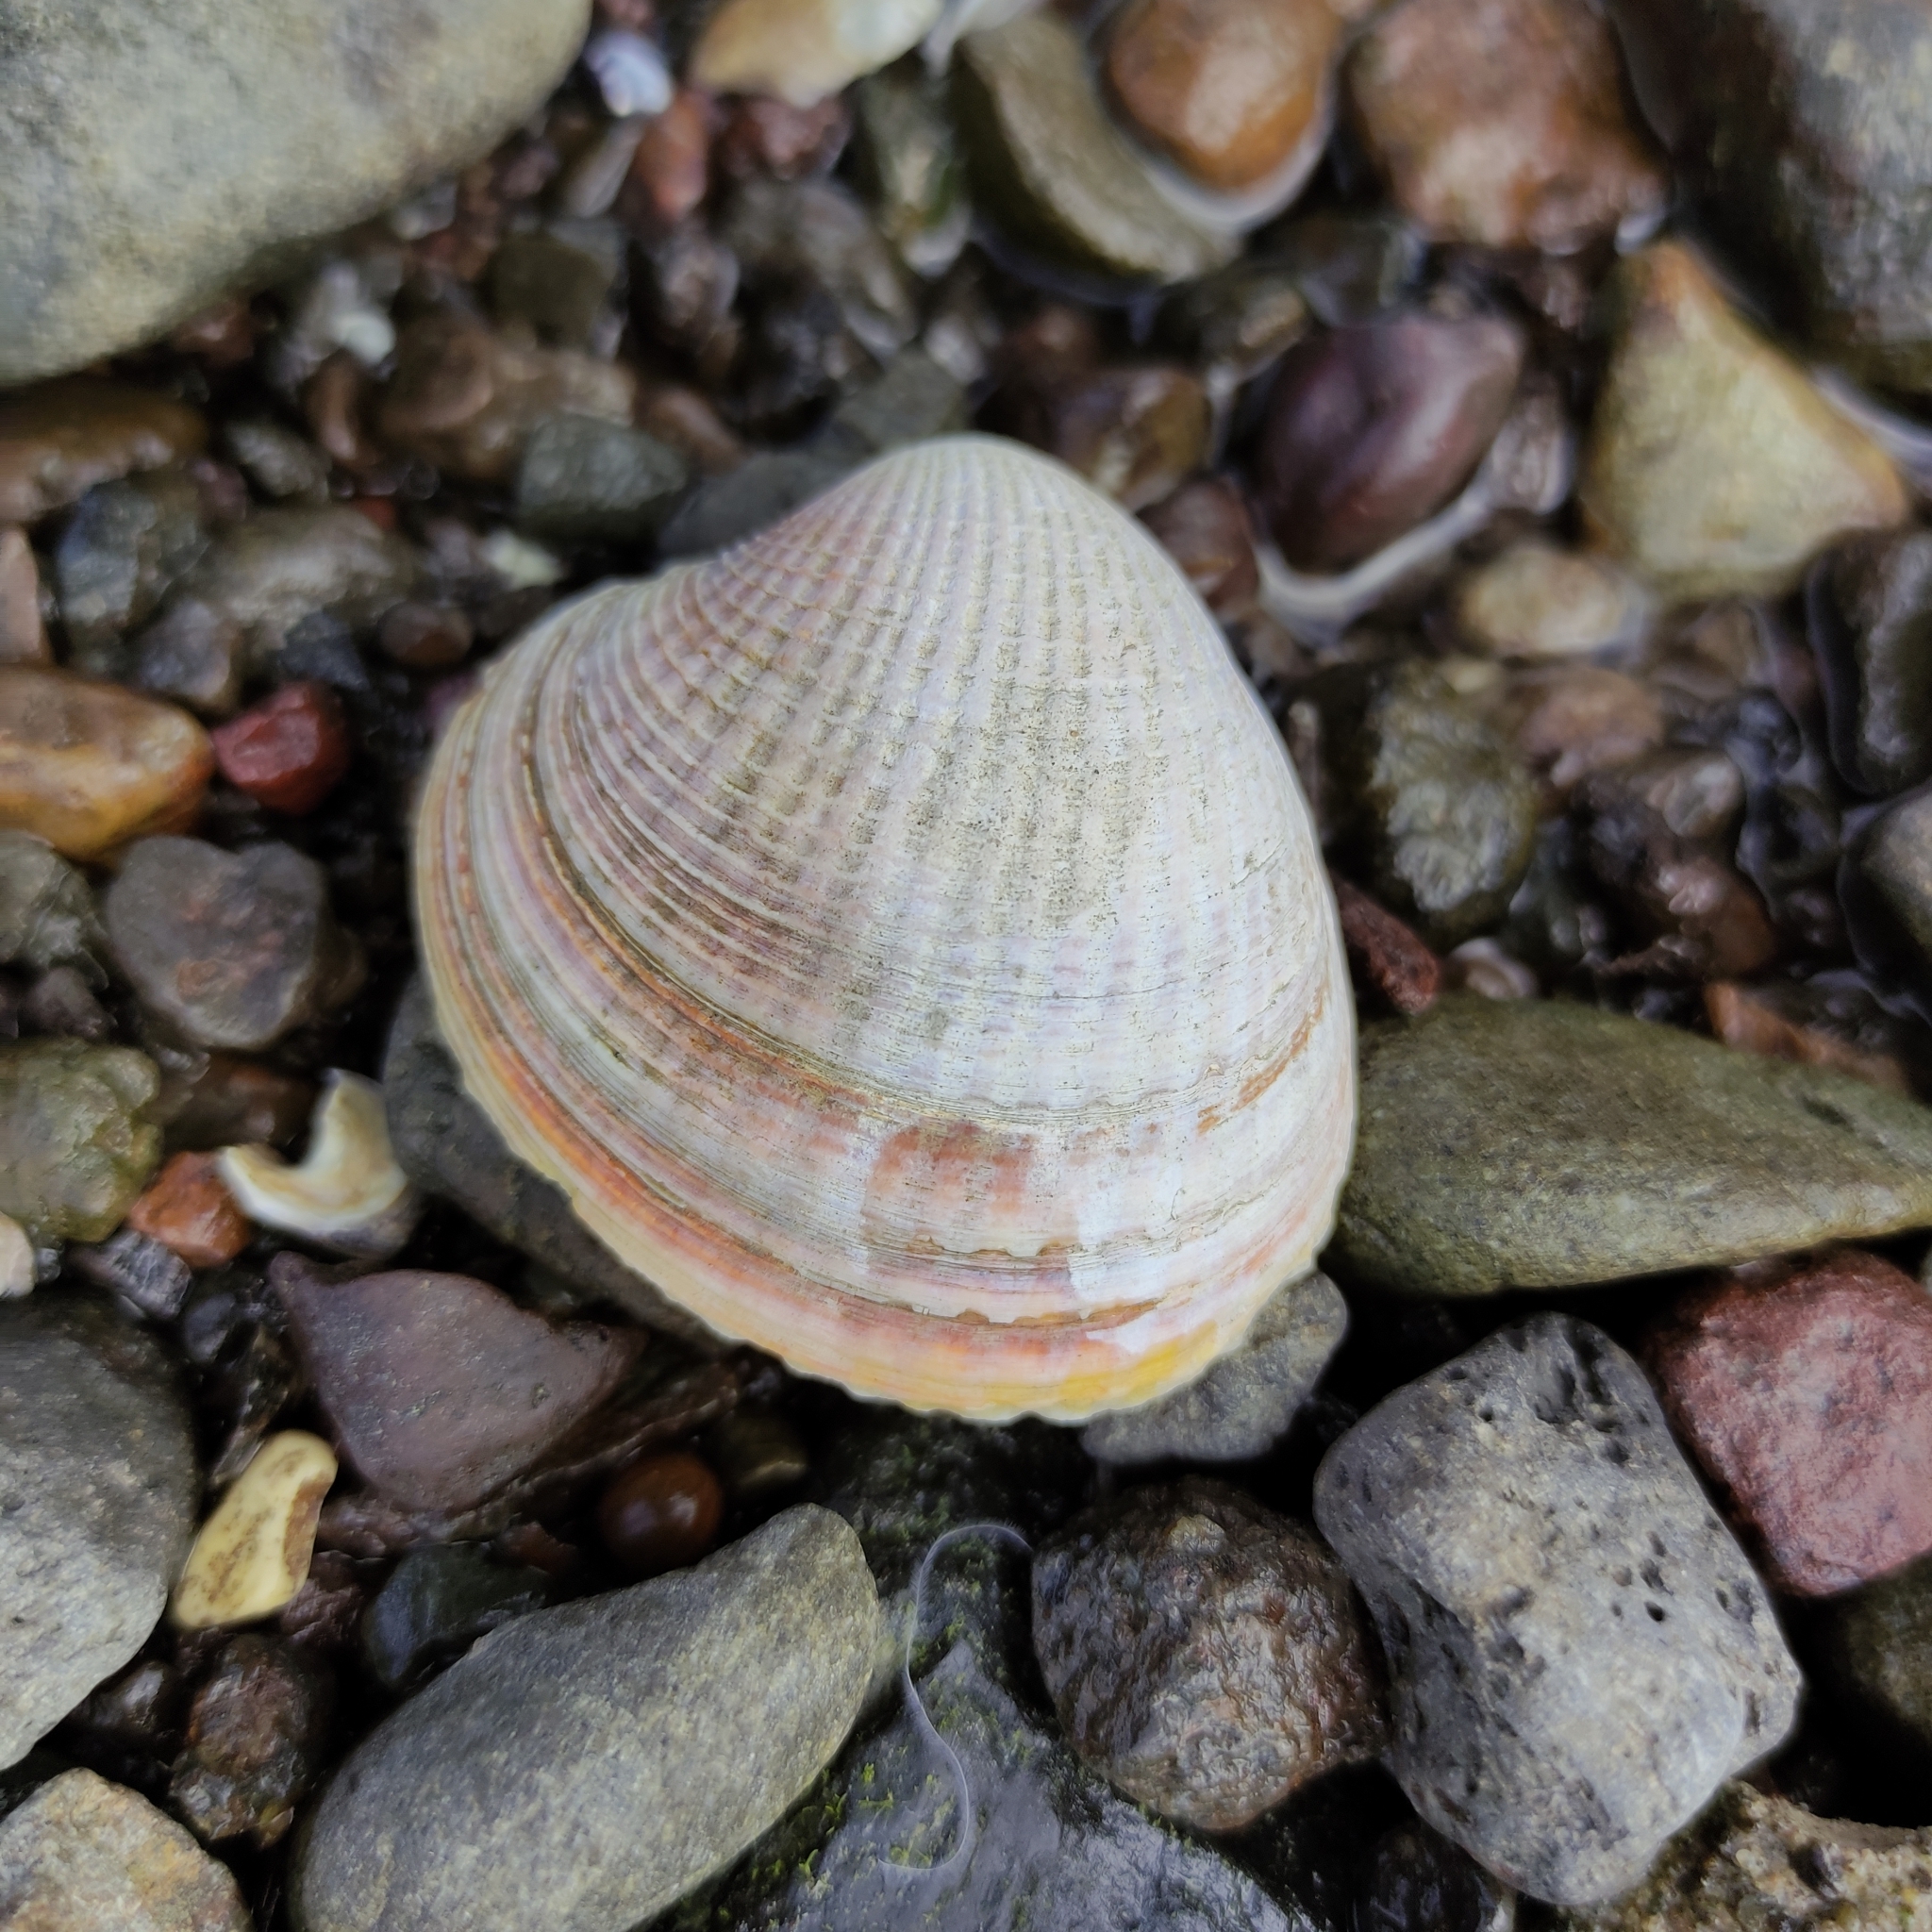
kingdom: Animalia
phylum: Mollusca
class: Bivalvia
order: Venerida
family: Veneridae
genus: Austrovenus
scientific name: Austrovenus stutchburyi
